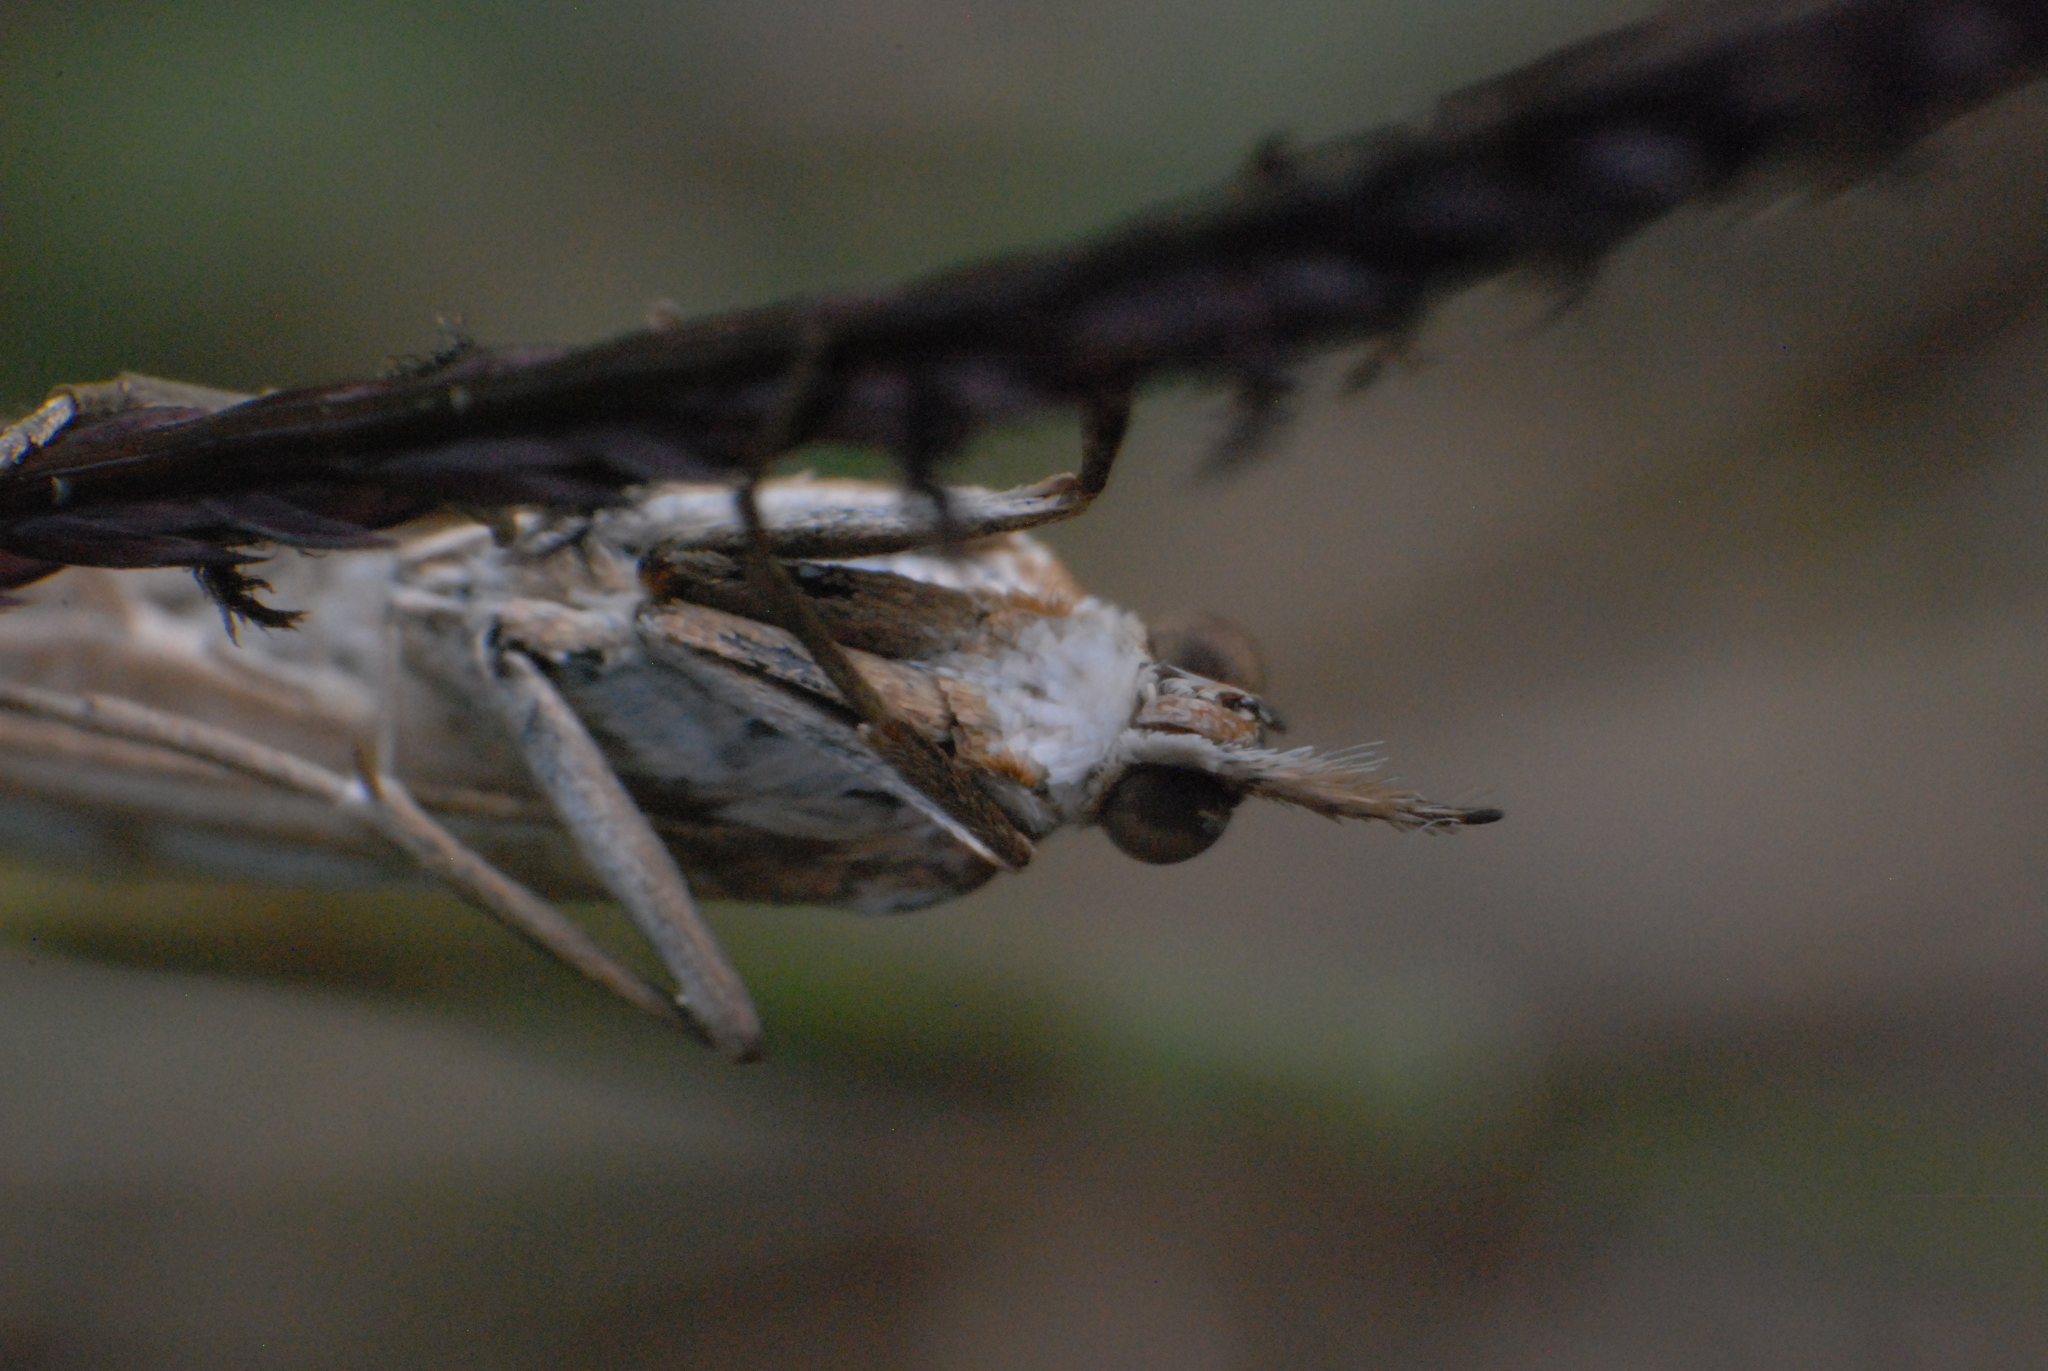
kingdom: Animalia
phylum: Arthropoda
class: Insecta
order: Lepidoptera
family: Crambidae
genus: Hednota
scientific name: Hednota pleniferellus
